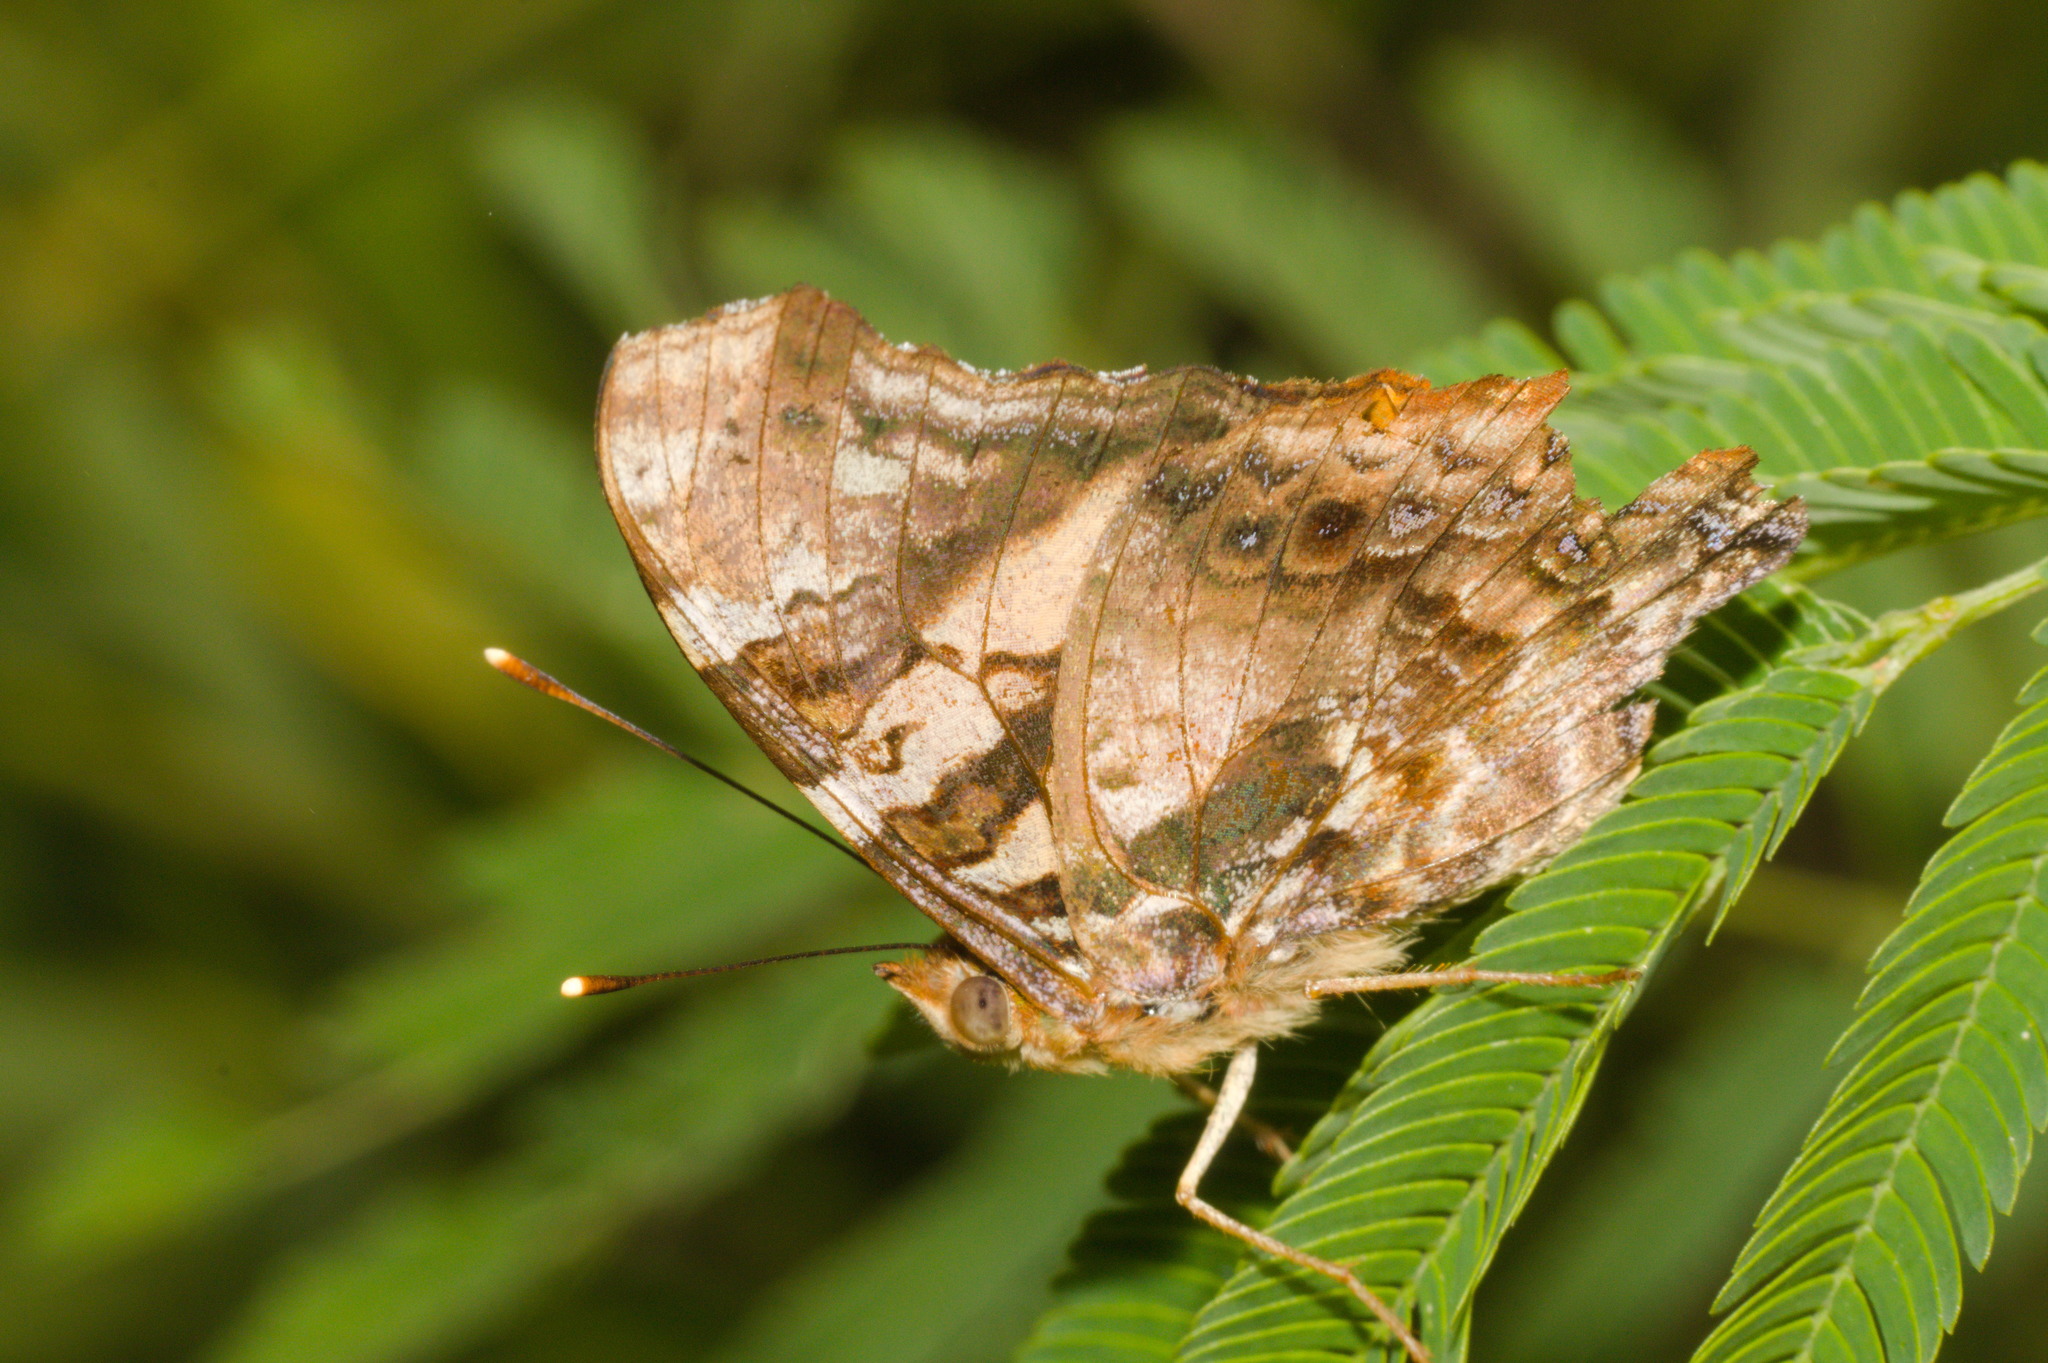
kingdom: Animalia
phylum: Arthropoda
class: Insecta
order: Lepidoptera
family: Nymphalidae
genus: Hypanartia
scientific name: Hypanartia bella
